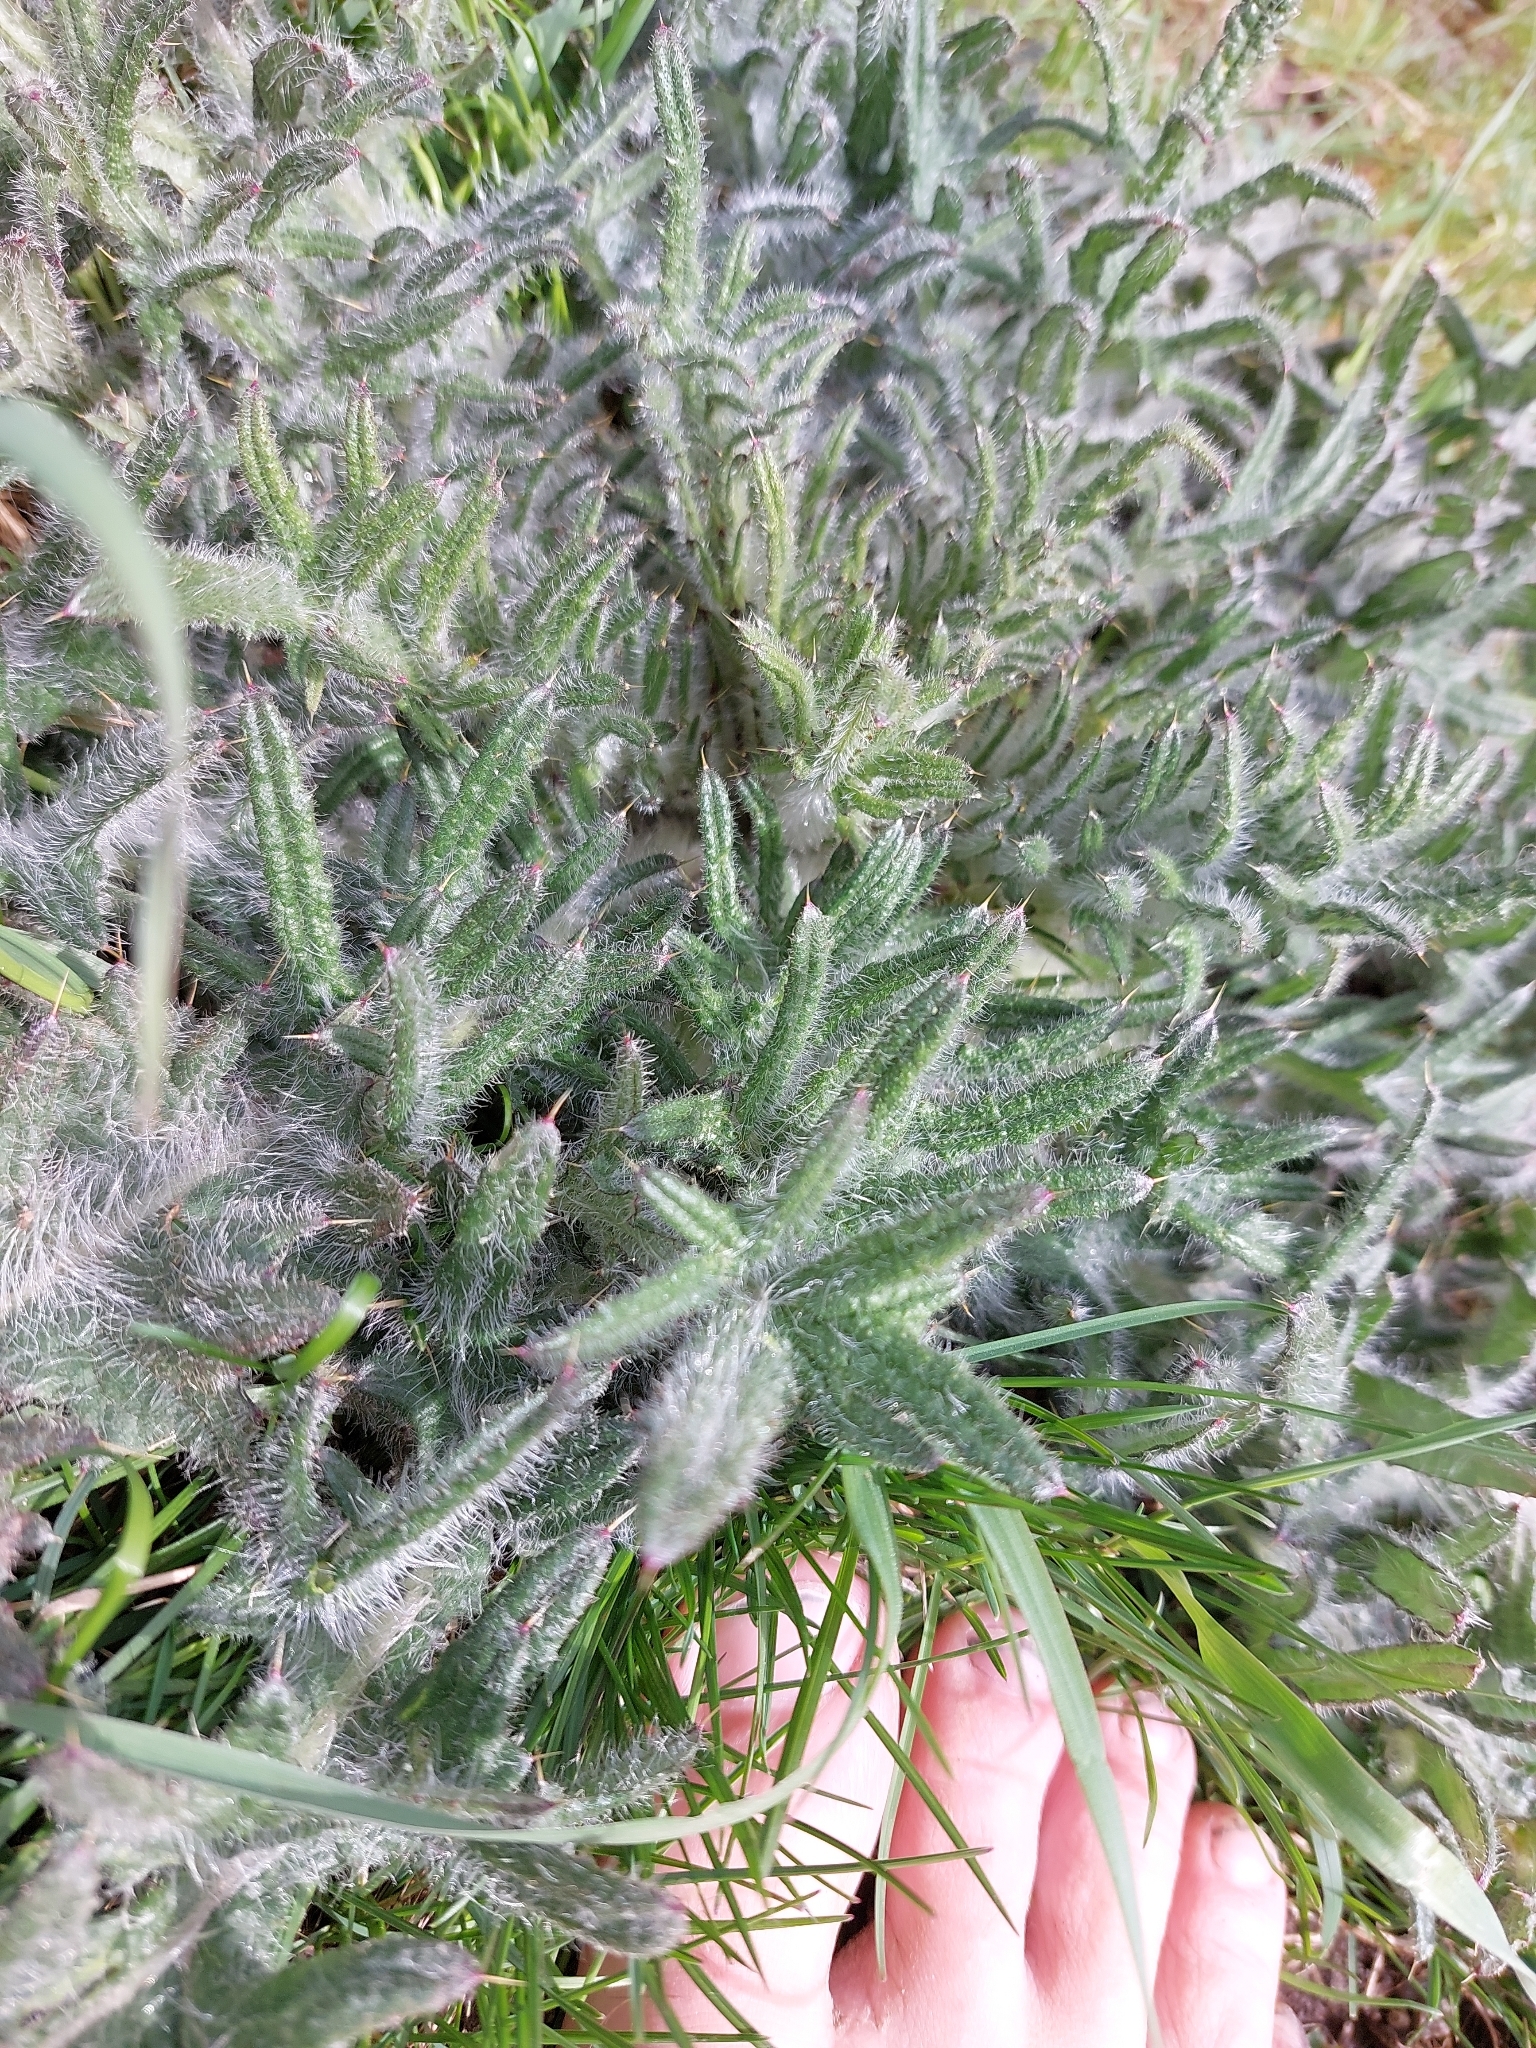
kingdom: Plantae
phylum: Tracheophyta
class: Magnoliopsida
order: Asterales
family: Asteraceae
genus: Cirsium
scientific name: Cirsium vulgare
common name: Bull thistle
